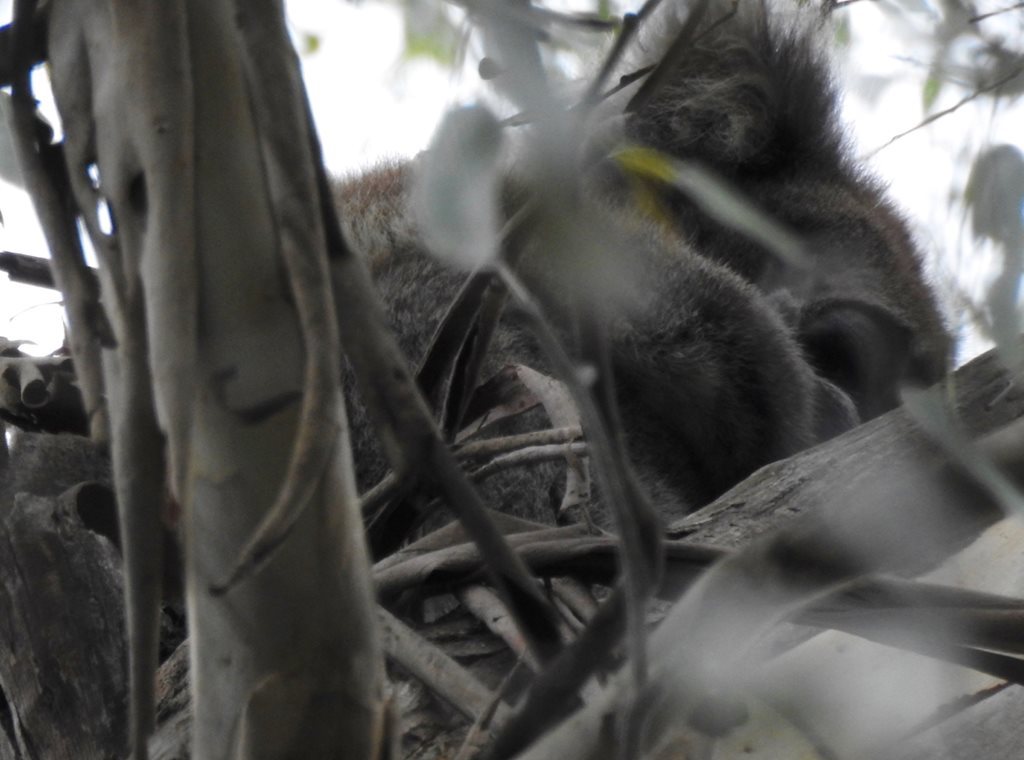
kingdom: Animalia
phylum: Chordata
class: Mammalia
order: Diprotodontia
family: Phascolarctidae
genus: Phascolarctos
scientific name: Phascolarctos cinereus
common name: Koala
